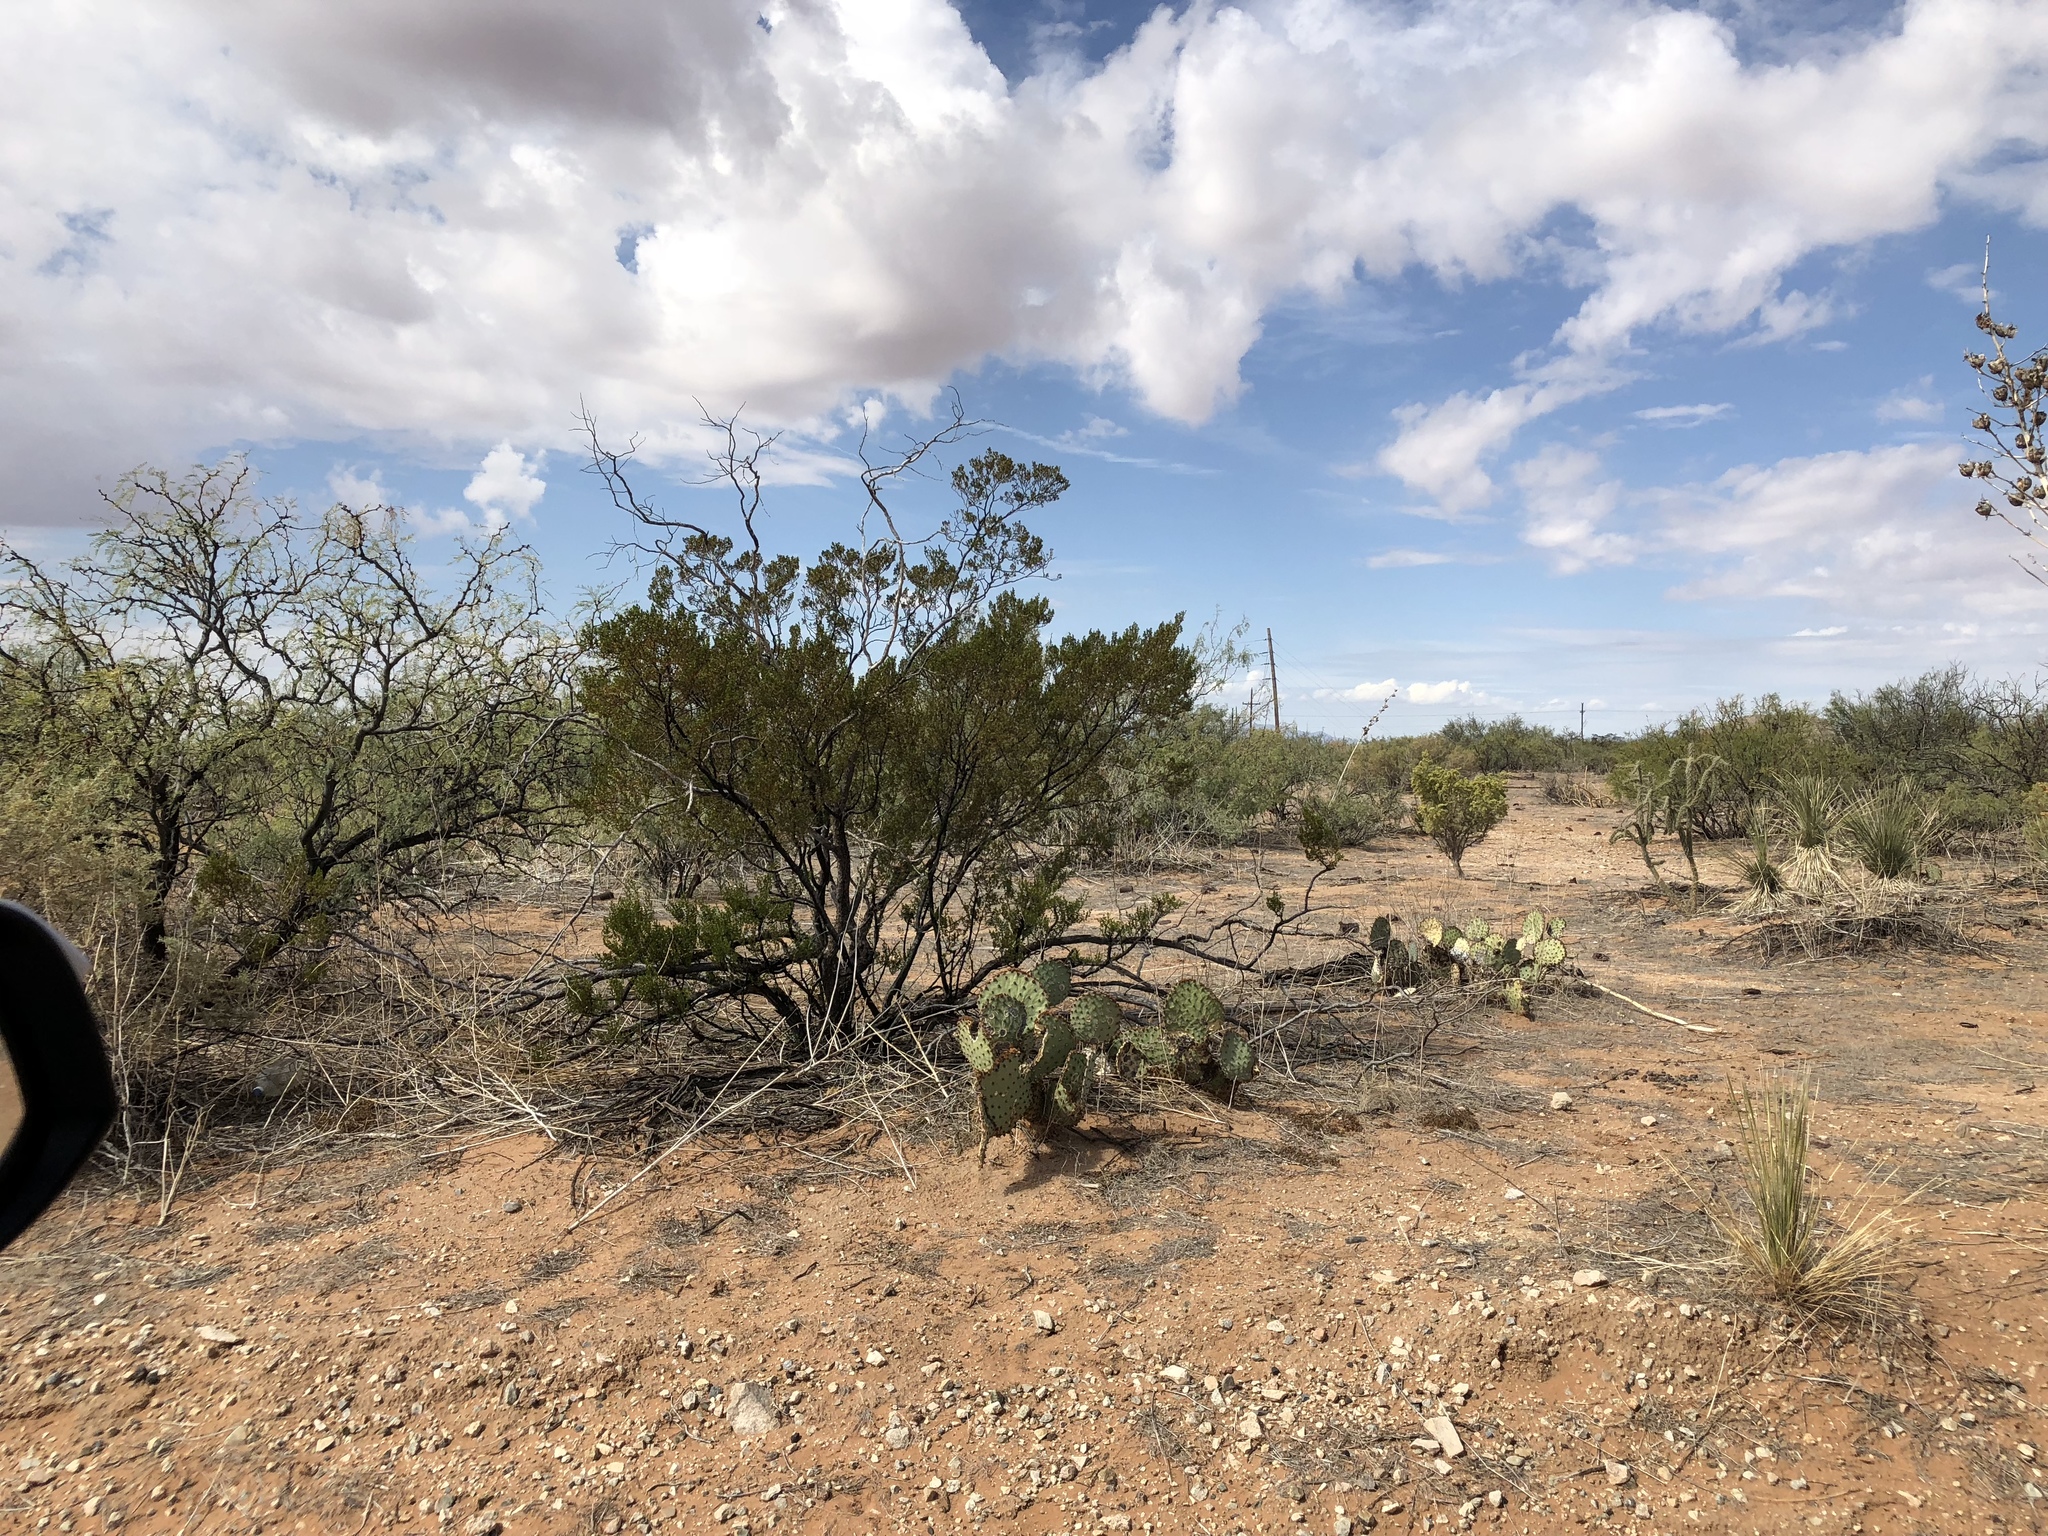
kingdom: Plantae
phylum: Tracheophyta
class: Magnoliopsida
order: Zygophyllales
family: Zygophyllaceae
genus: Larrea
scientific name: Larrea tridentata
